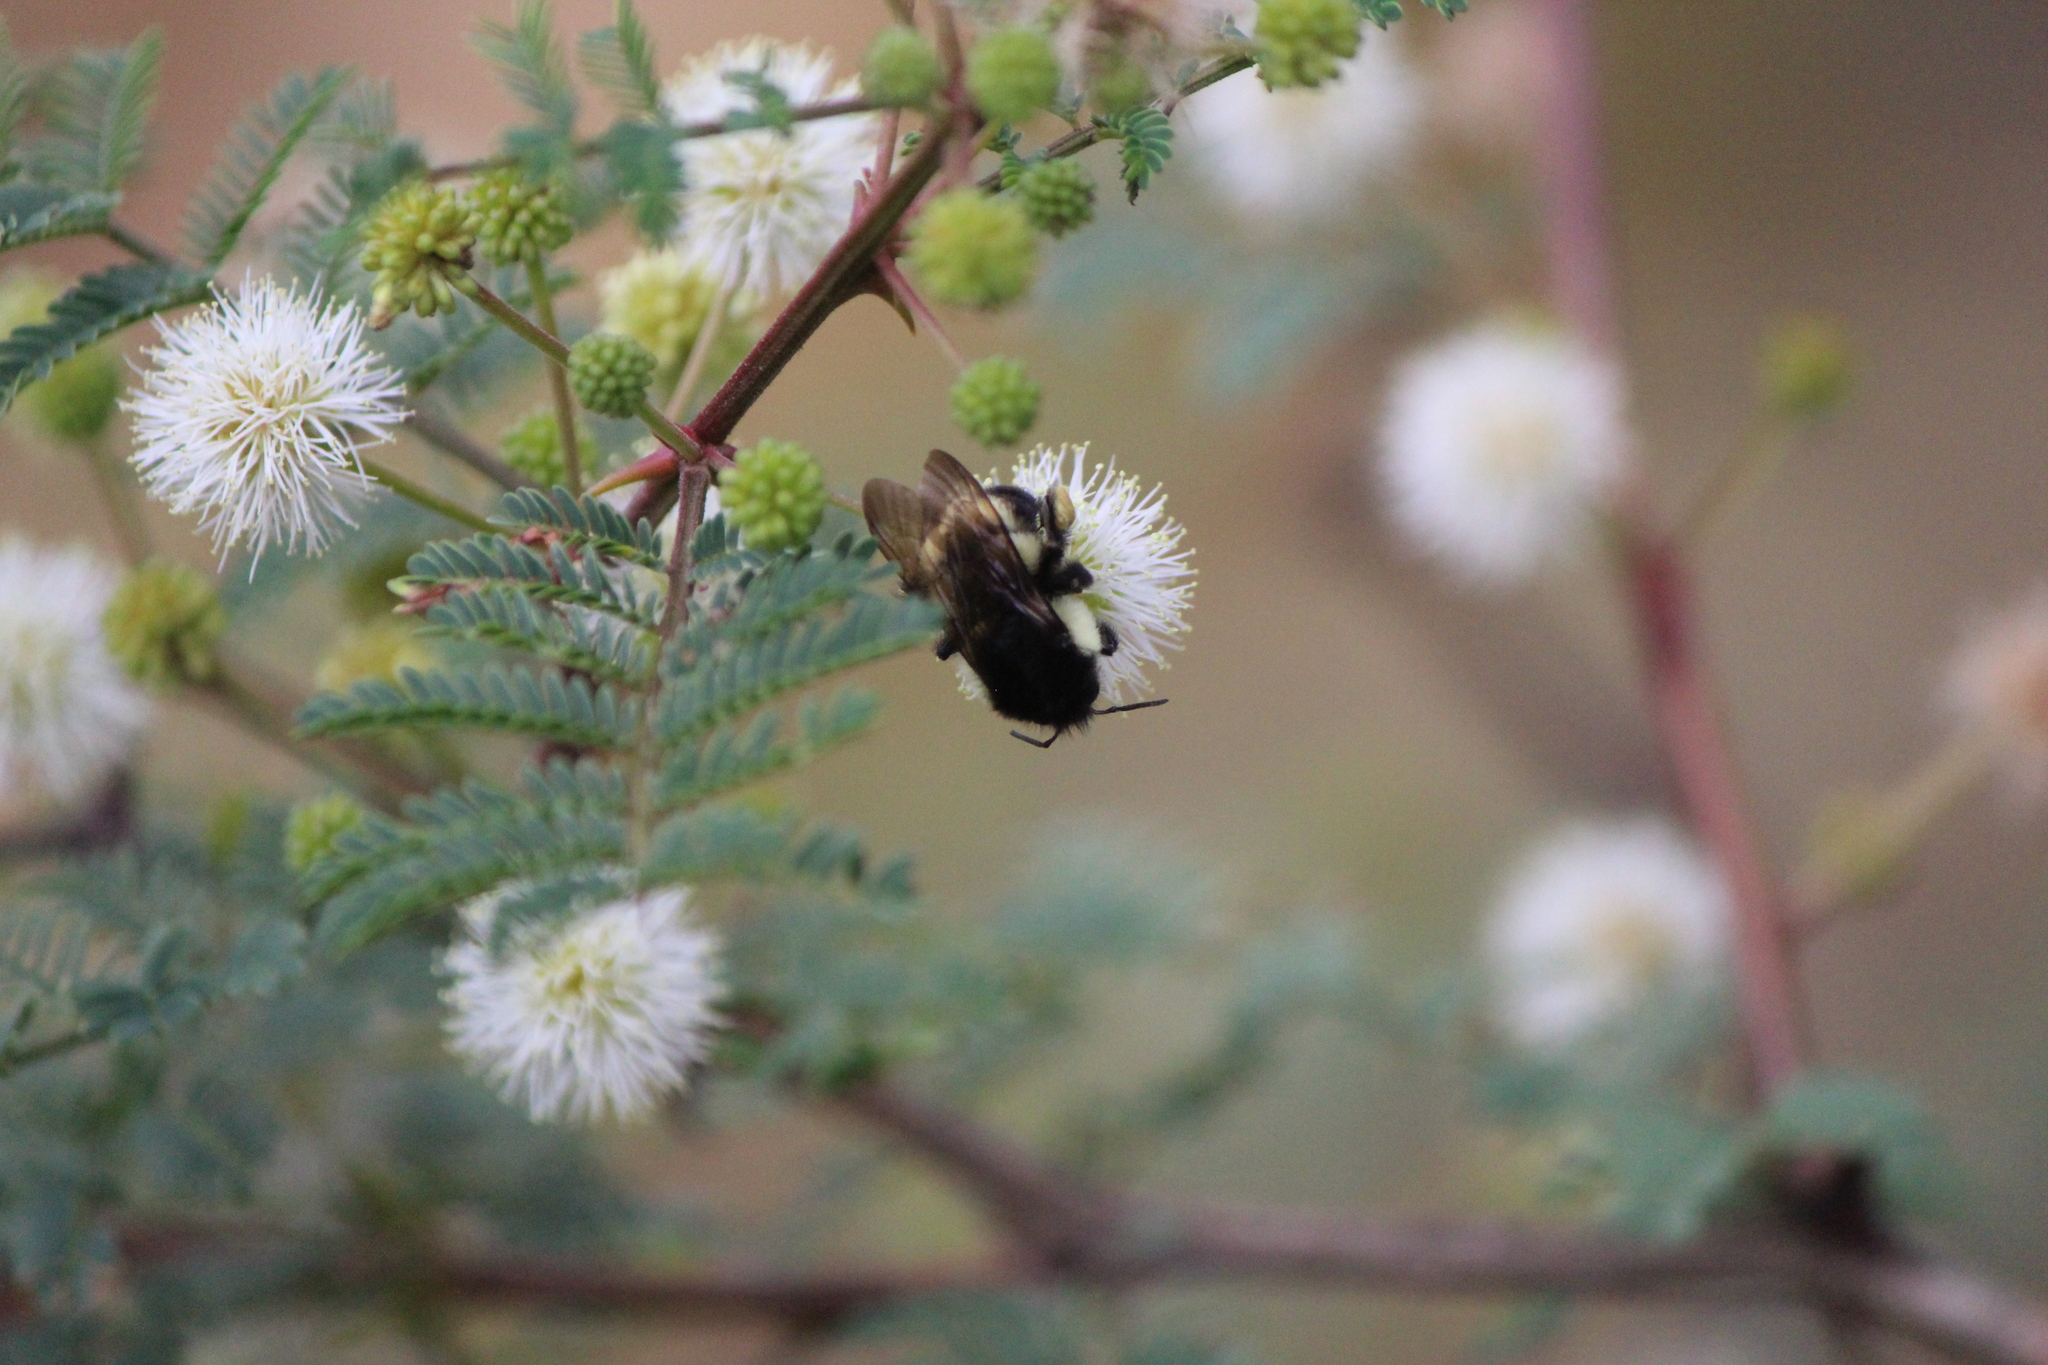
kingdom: Animalia
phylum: Arthropoda
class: Insecta
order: Hymenoptera
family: Apidae
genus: Bombus
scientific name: Bombus ephippiatus
